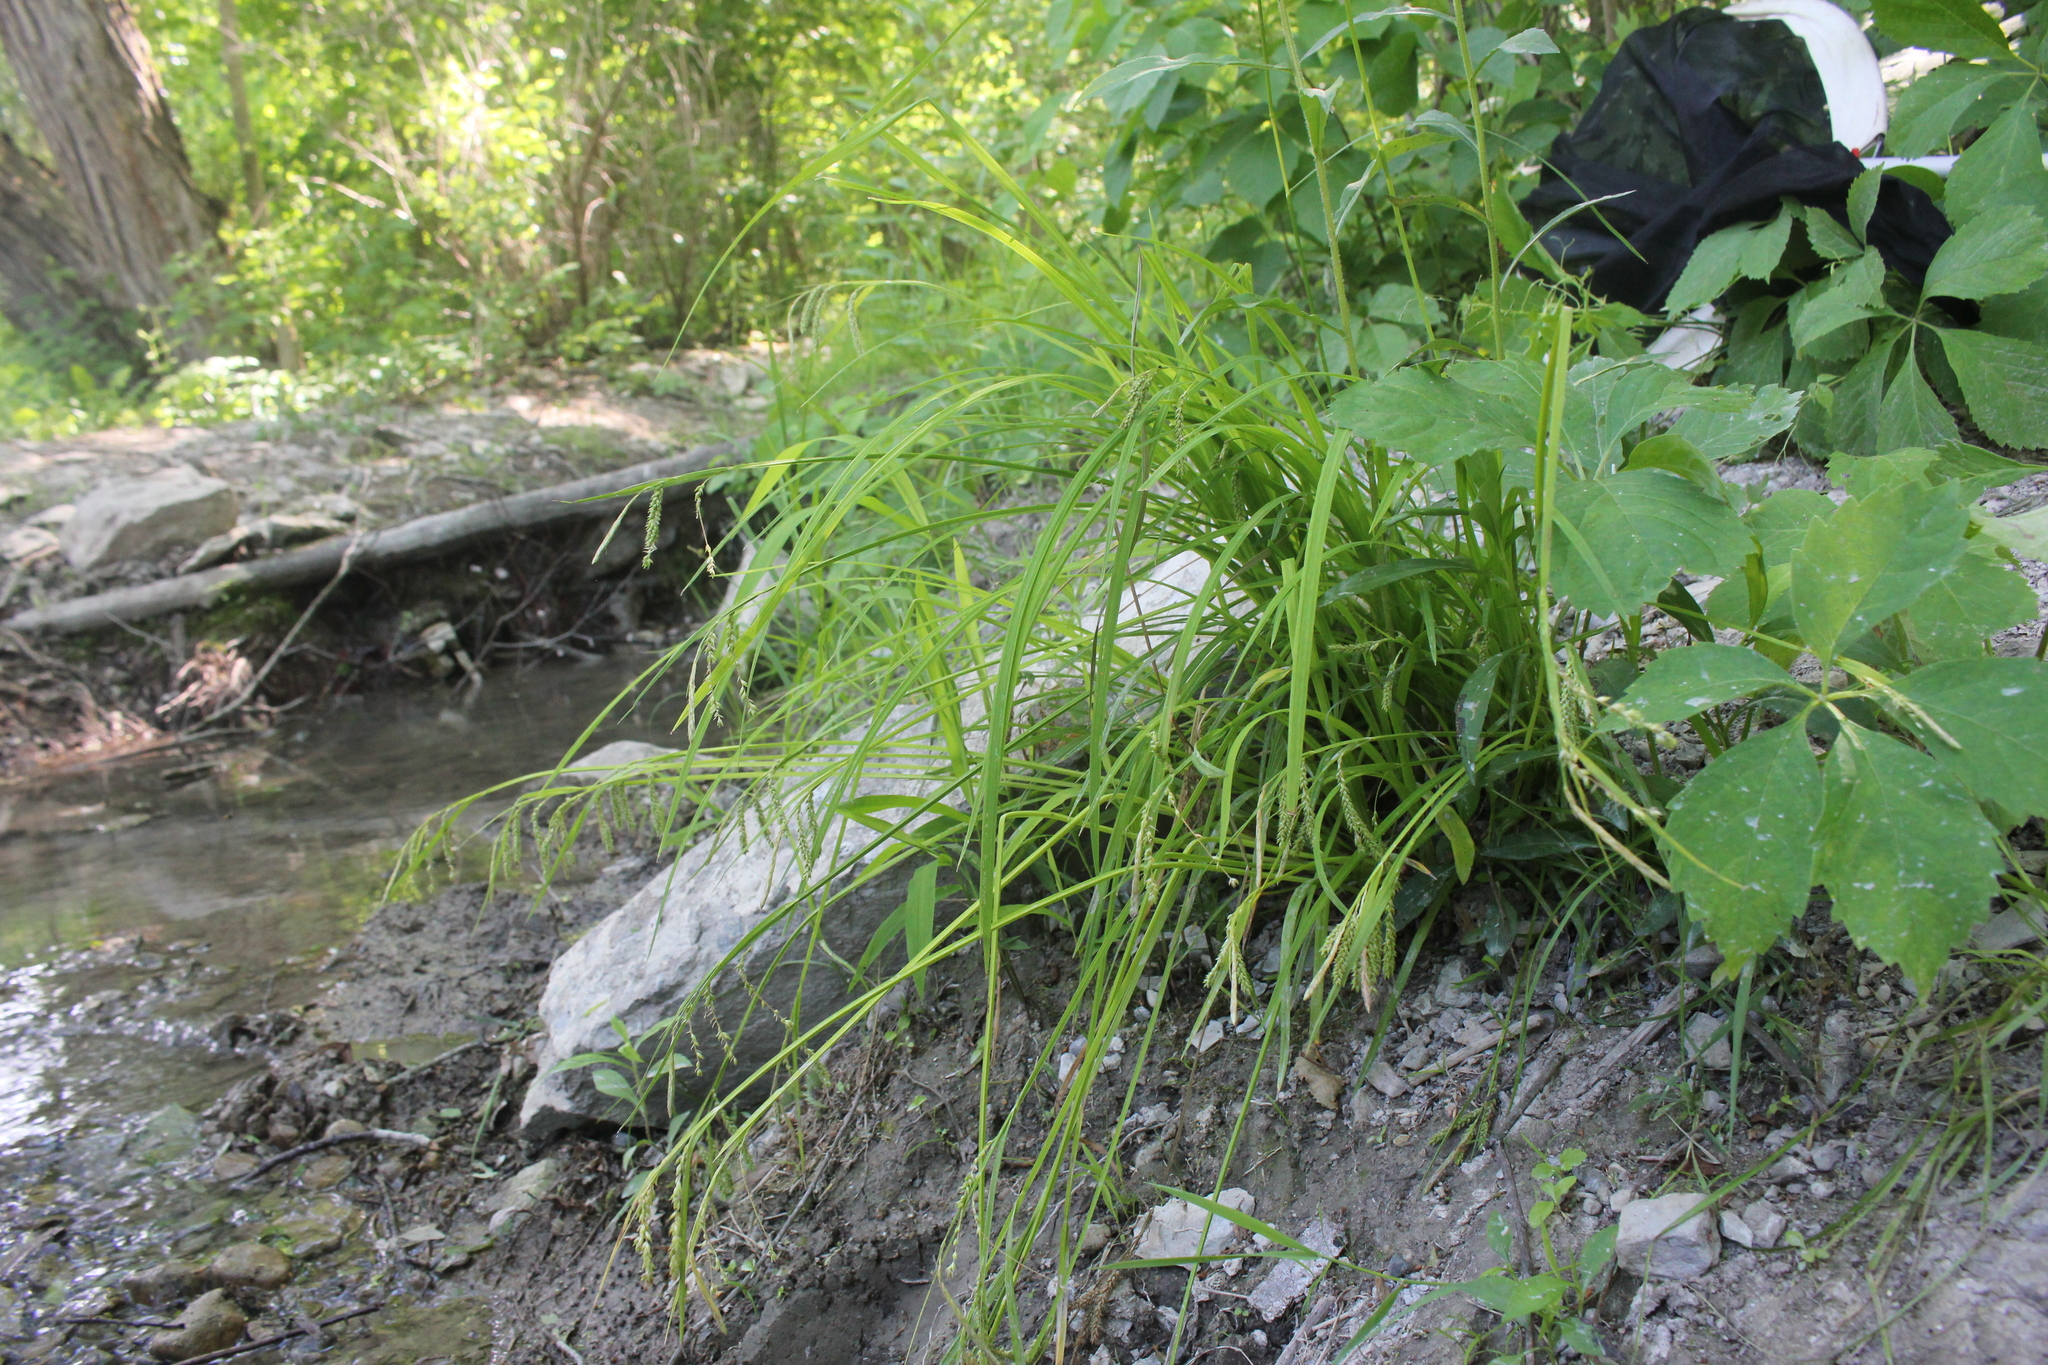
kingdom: Plantae
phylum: Tracheophyta
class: Liliopsida
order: Poales
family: Cyperaceae
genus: Carex
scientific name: Carex prasina
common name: Drooping sedge
